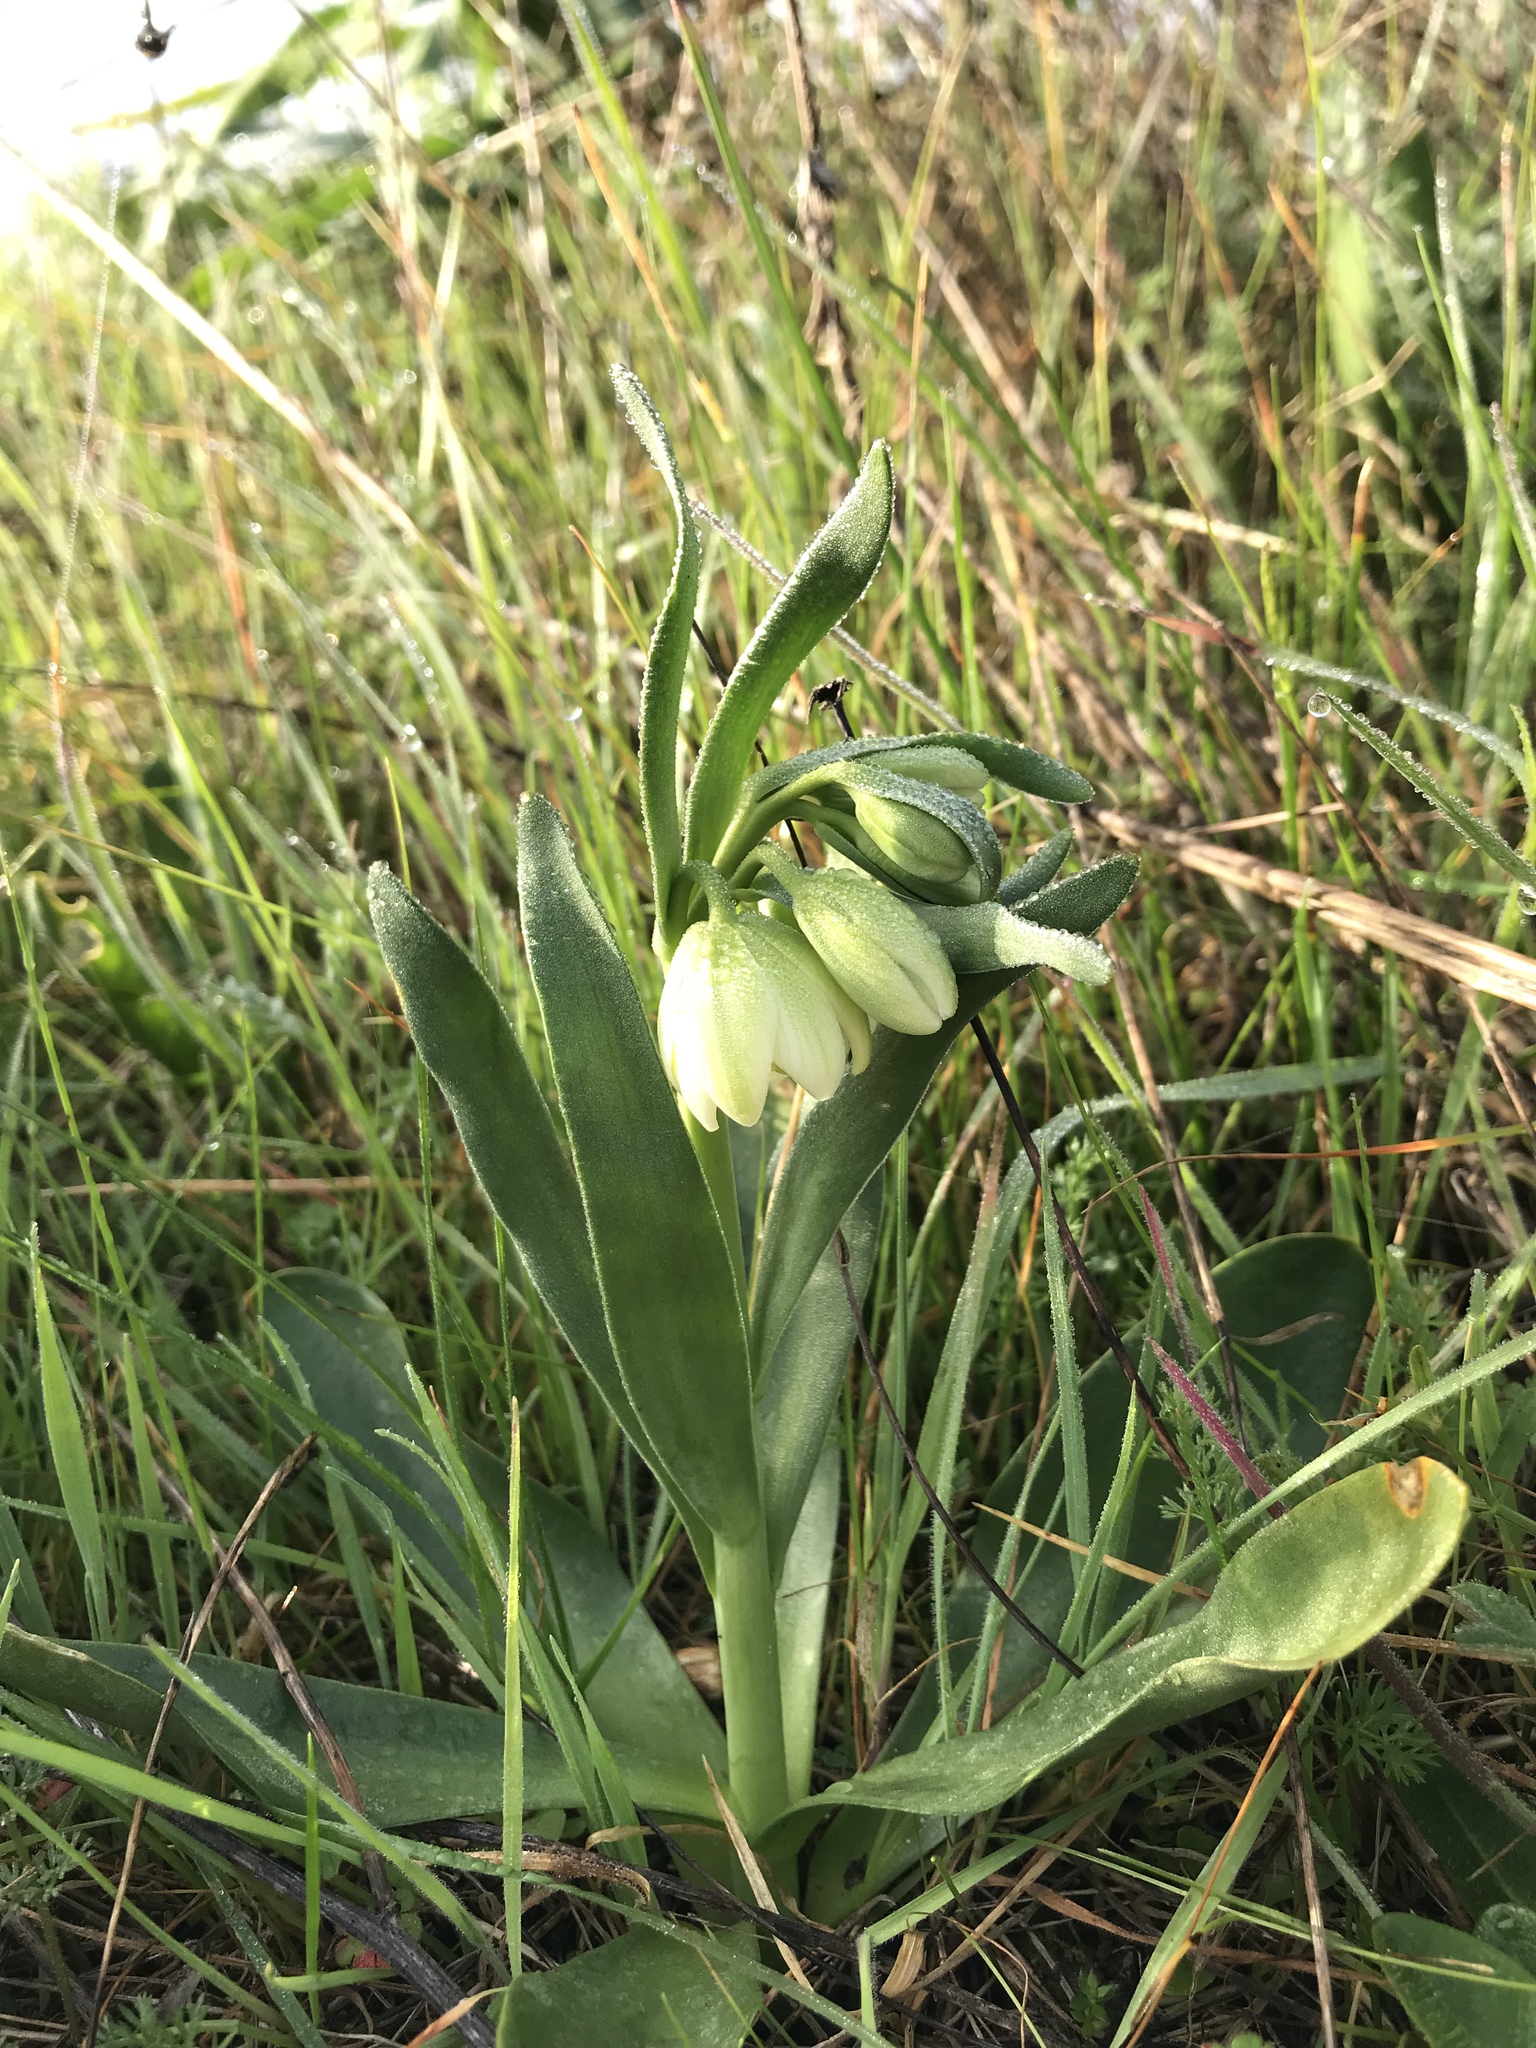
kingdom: Plantae
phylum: Tracheophyta
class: Liliopsida
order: Liliales
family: Liliaceae
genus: Fritillaria
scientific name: Fritillaria liliacea
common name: Fragrant fritillary
